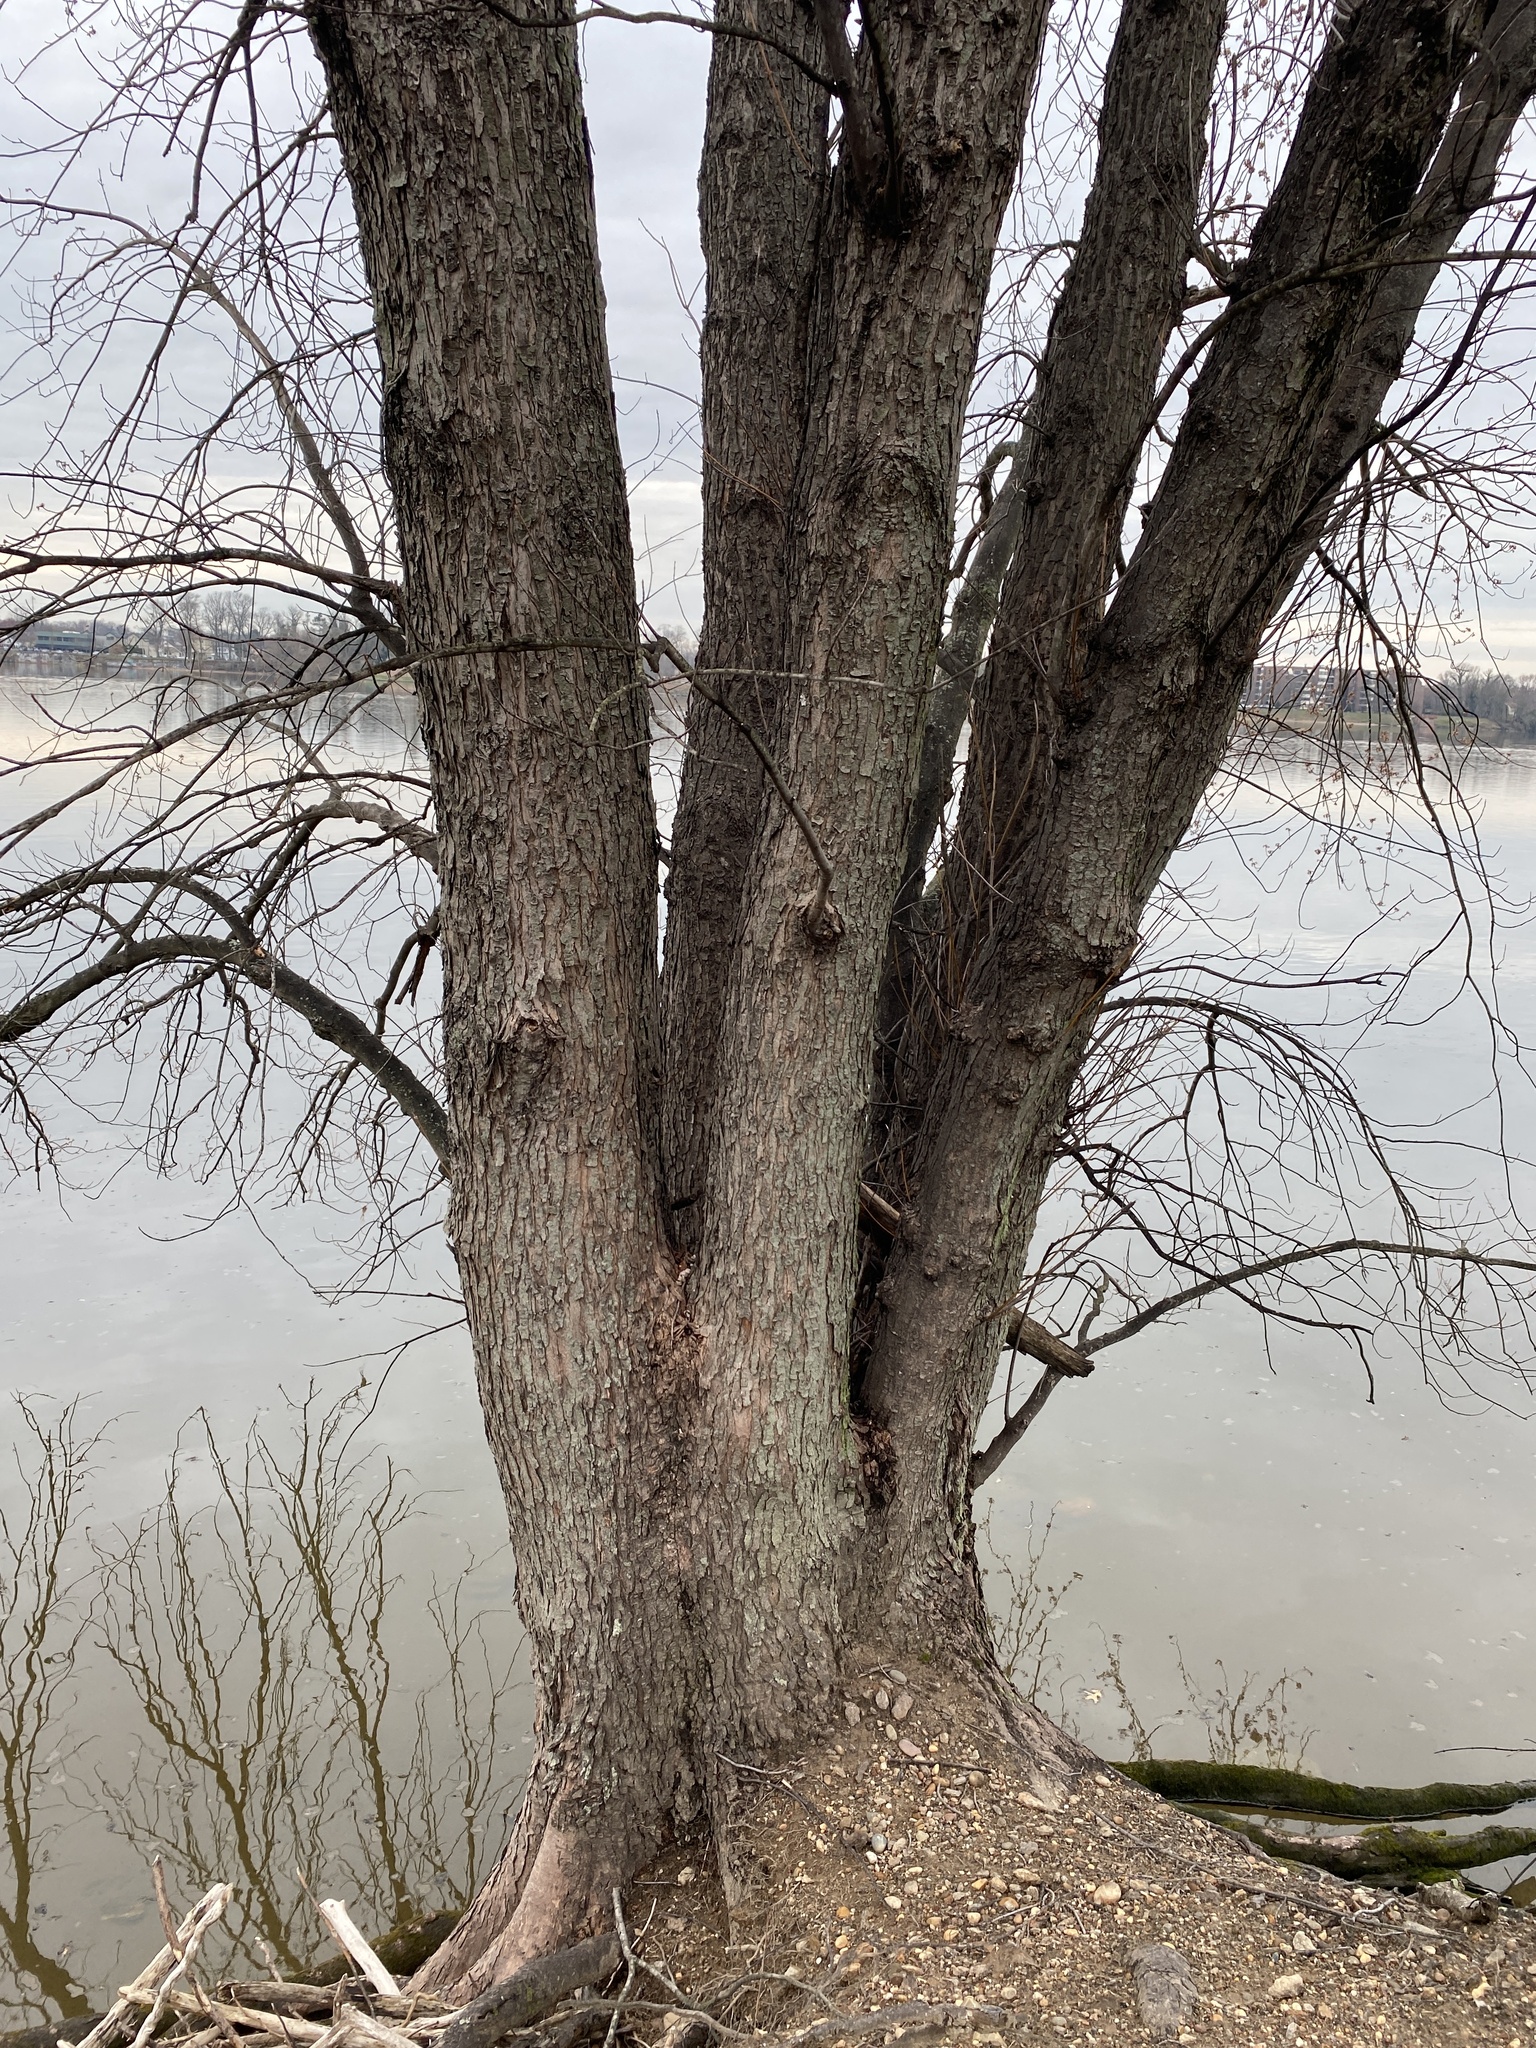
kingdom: Plantae
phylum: Tracheophyta
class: Magnoliopsida
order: Sapindales
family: Sapindaceae
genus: Acer
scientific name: Acer saccharinum
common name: Silver maple
